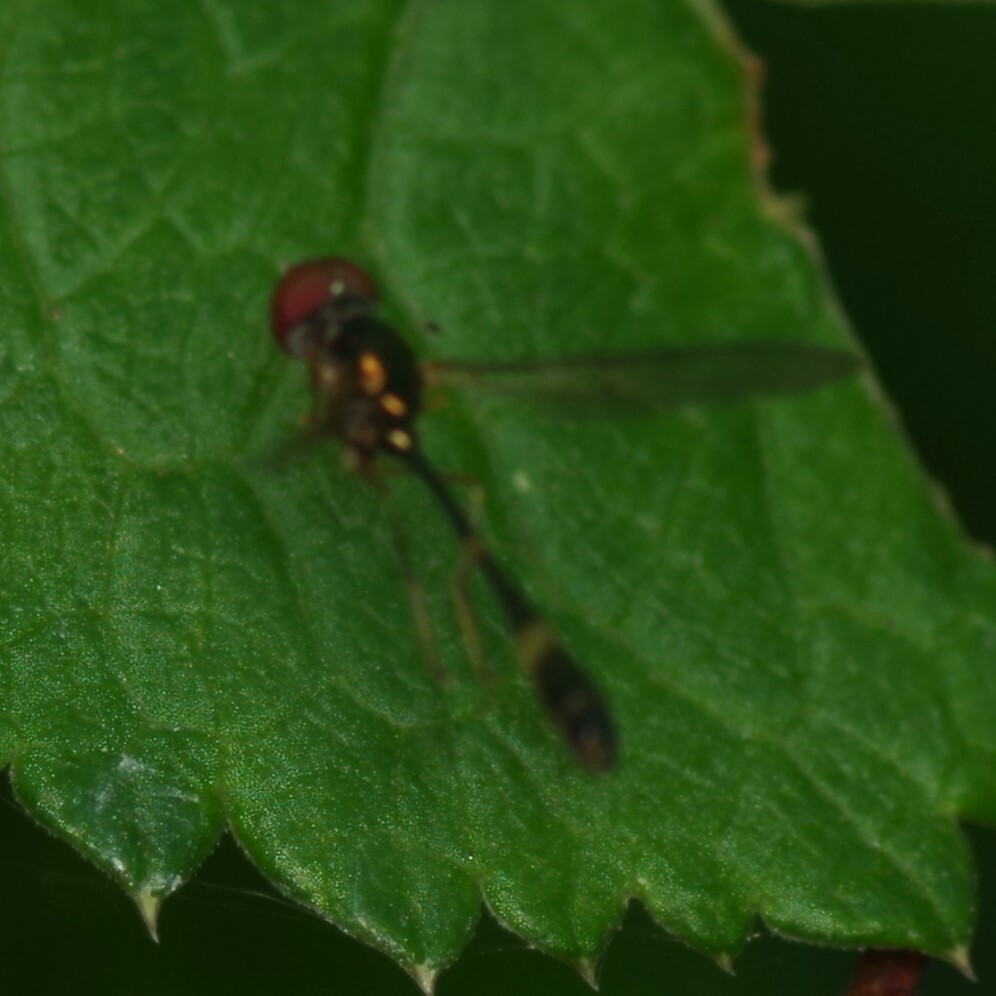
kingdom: Animalia
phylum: Arthropoda
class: Insecta
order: Diptera
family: Syrphidae
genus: Baccha
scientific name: Baccha elongata
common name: Common dainty
